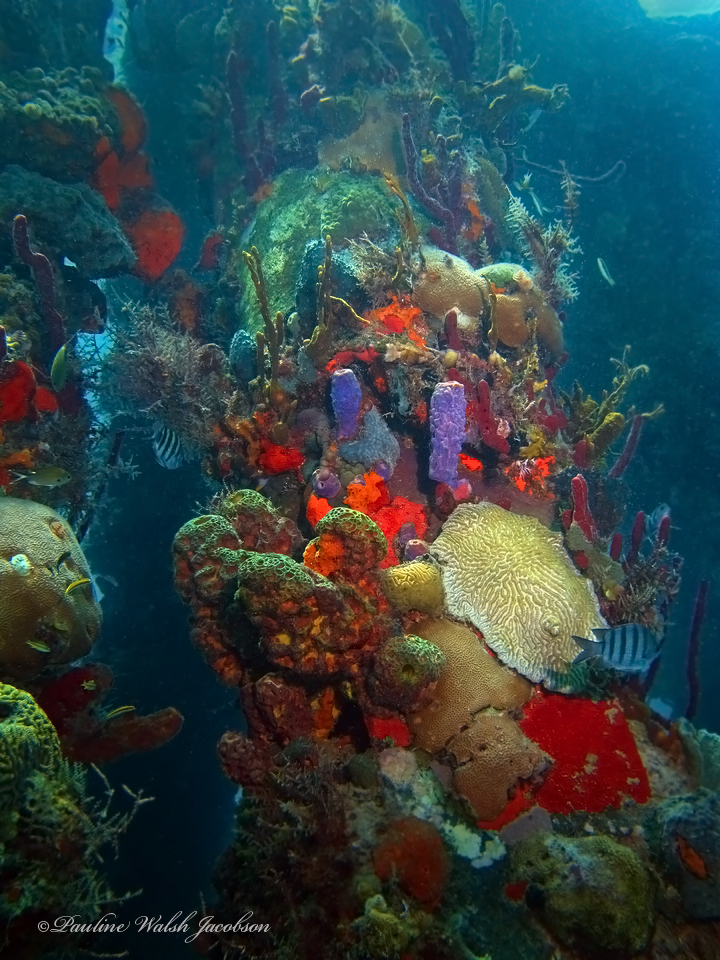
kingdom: Animalia
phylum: Chordata
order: Perciformes
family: Pomacentridae
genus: Abudefduf
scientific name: Abudefduf saxatilis
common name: Sergeant major
